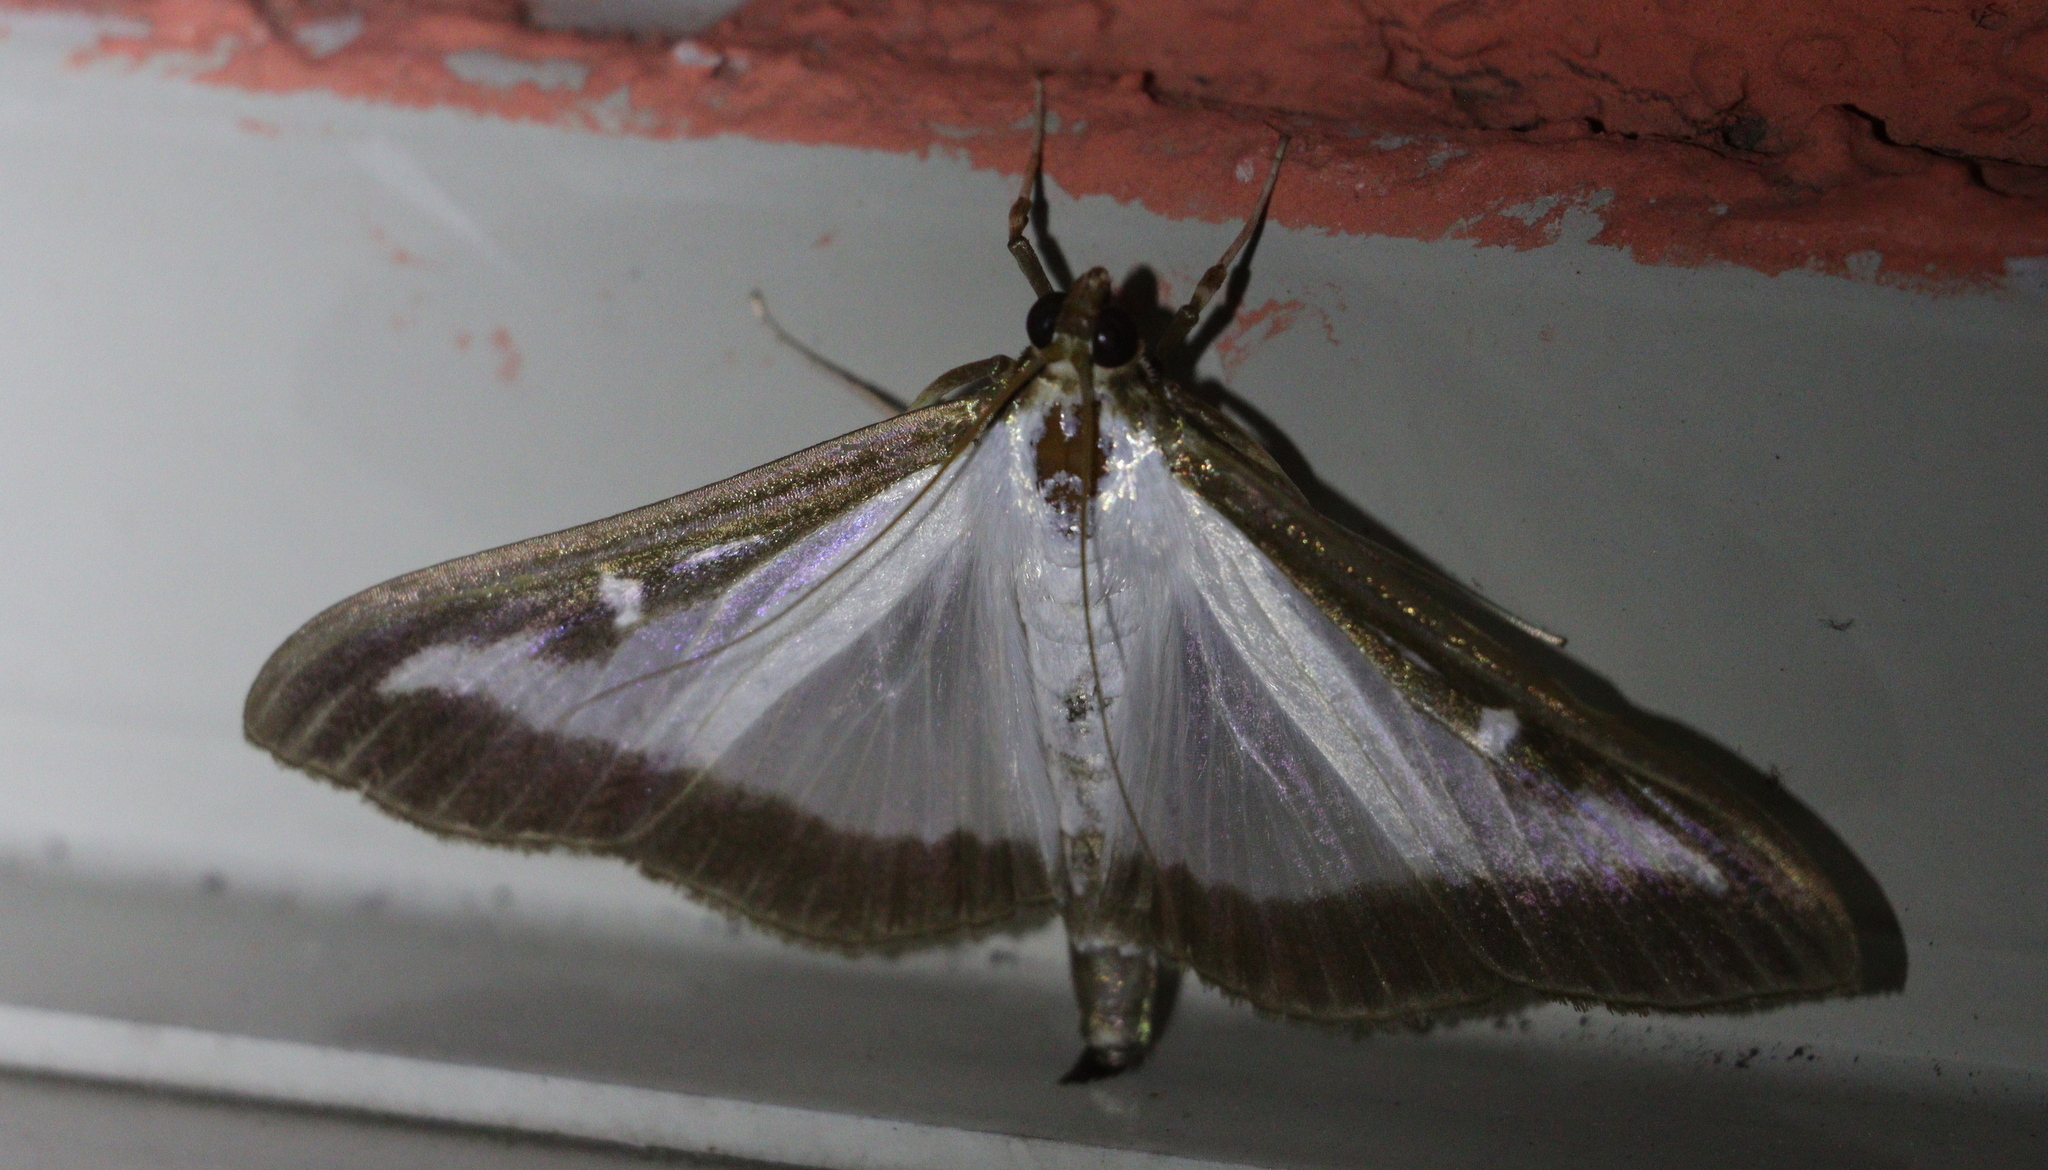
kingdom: Animalia
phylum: Arthropoda
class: Insecta
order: Lepidoptera
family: Crambidae
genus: Cydalima
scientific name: Cydalima perspectalis
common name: Box tree moth
